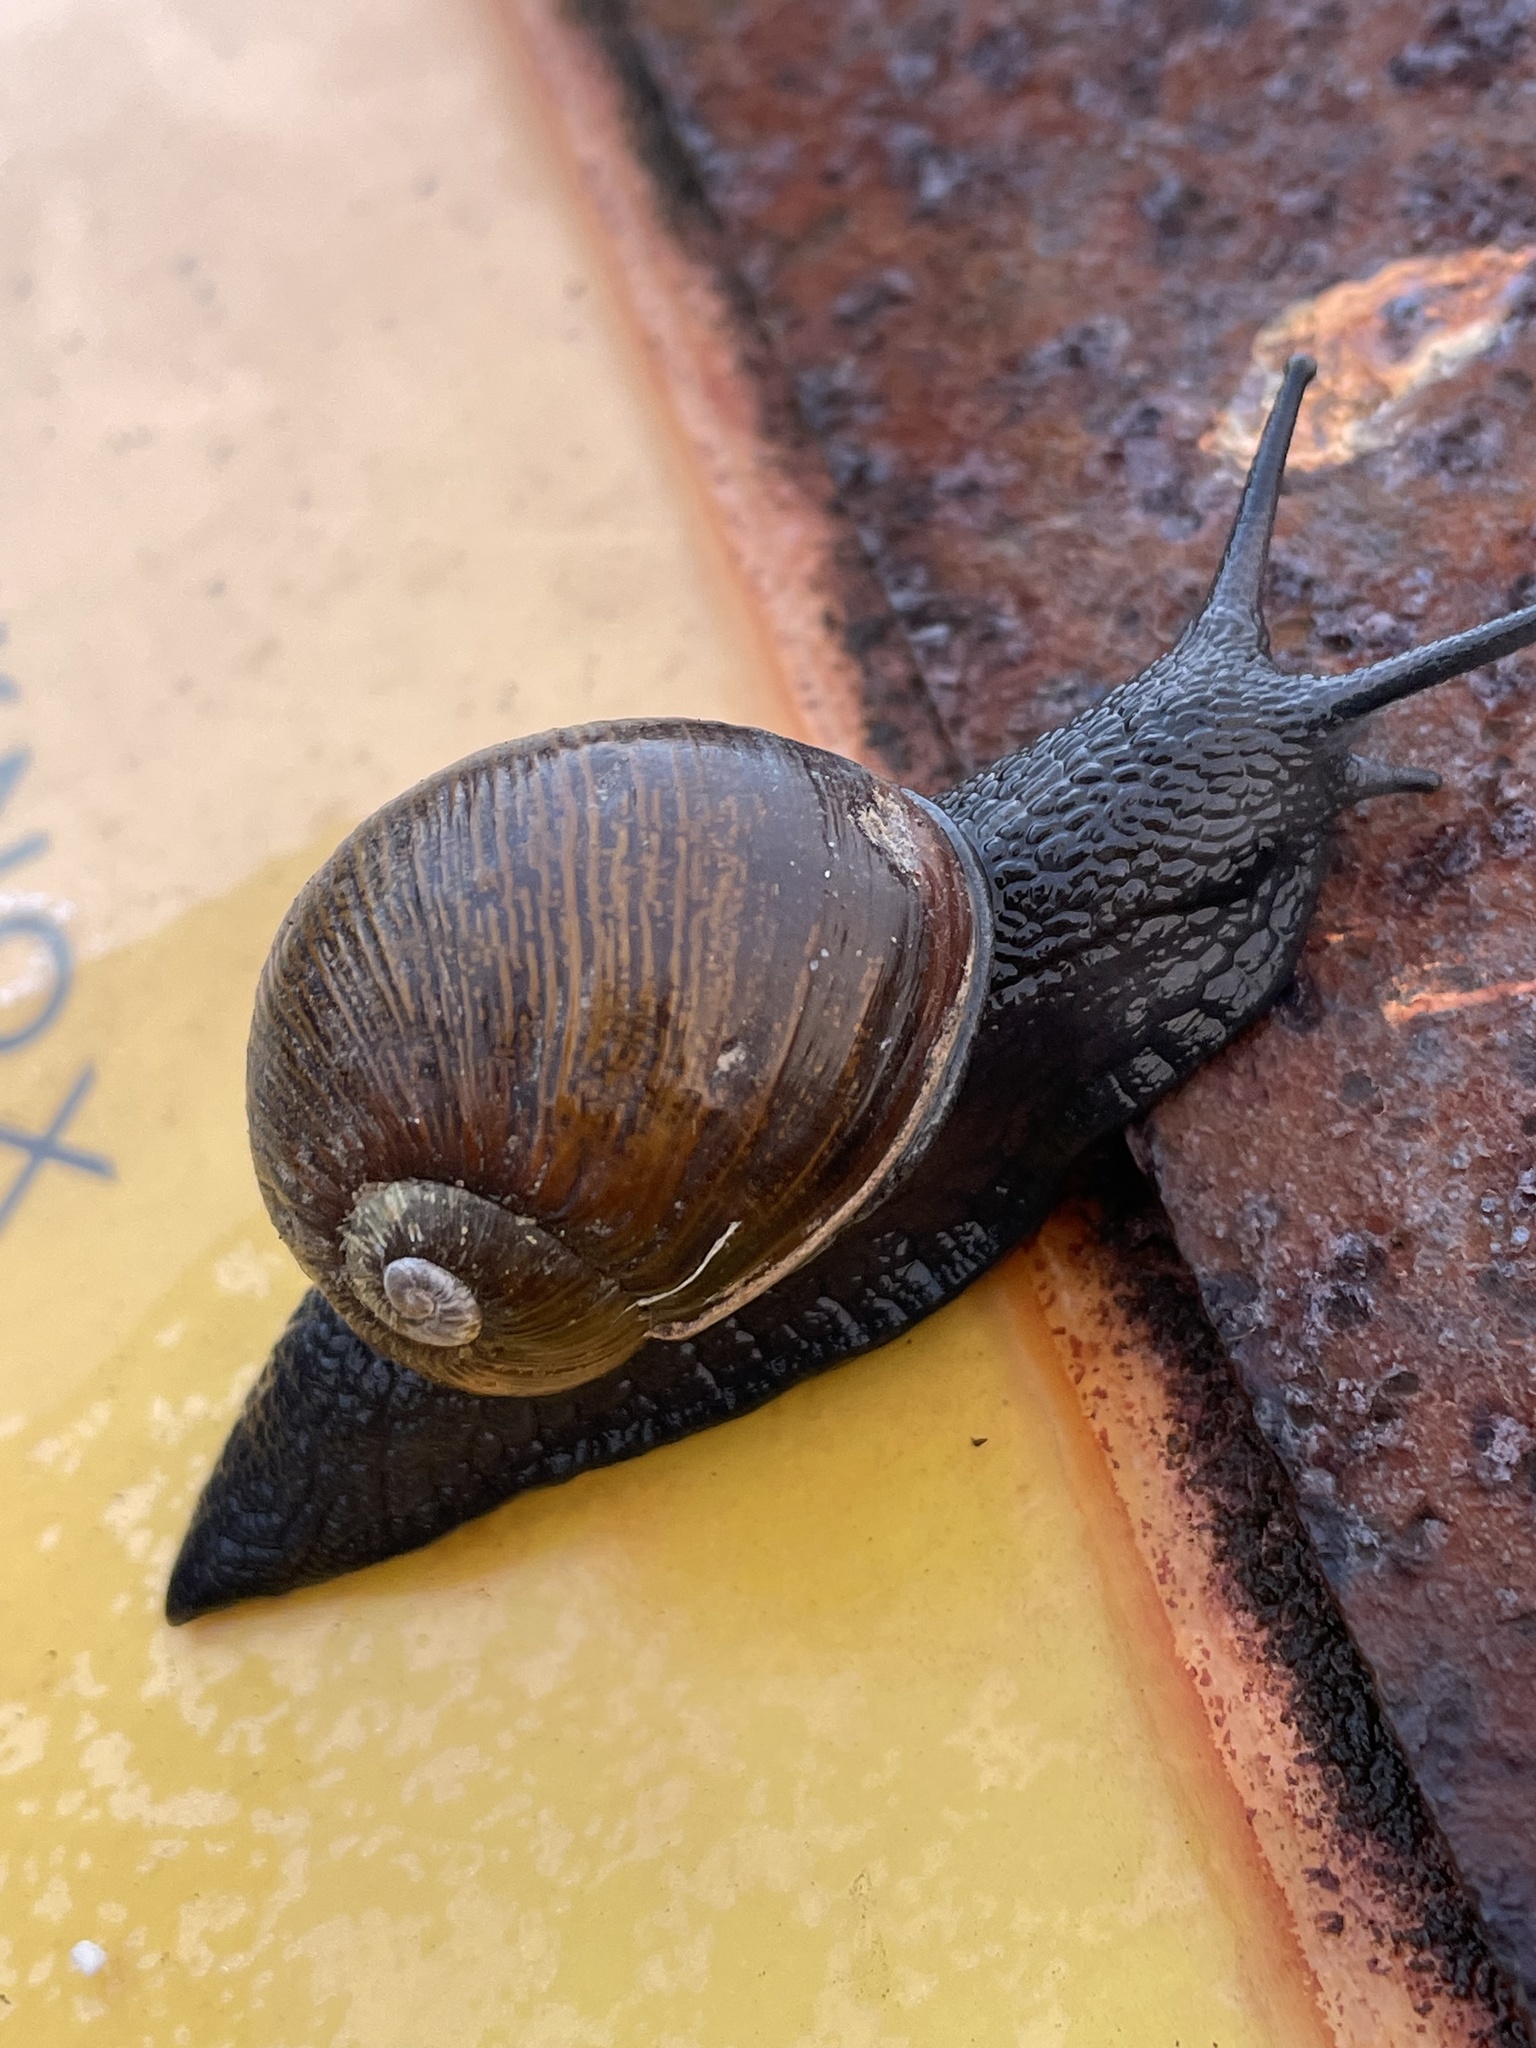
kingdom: Animalia
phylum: Mollusca
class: Gastropoda
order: Stylommatophora
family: Helicidae
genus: Cantareus
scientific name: Cantareus apertus
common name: Green gardensnail
